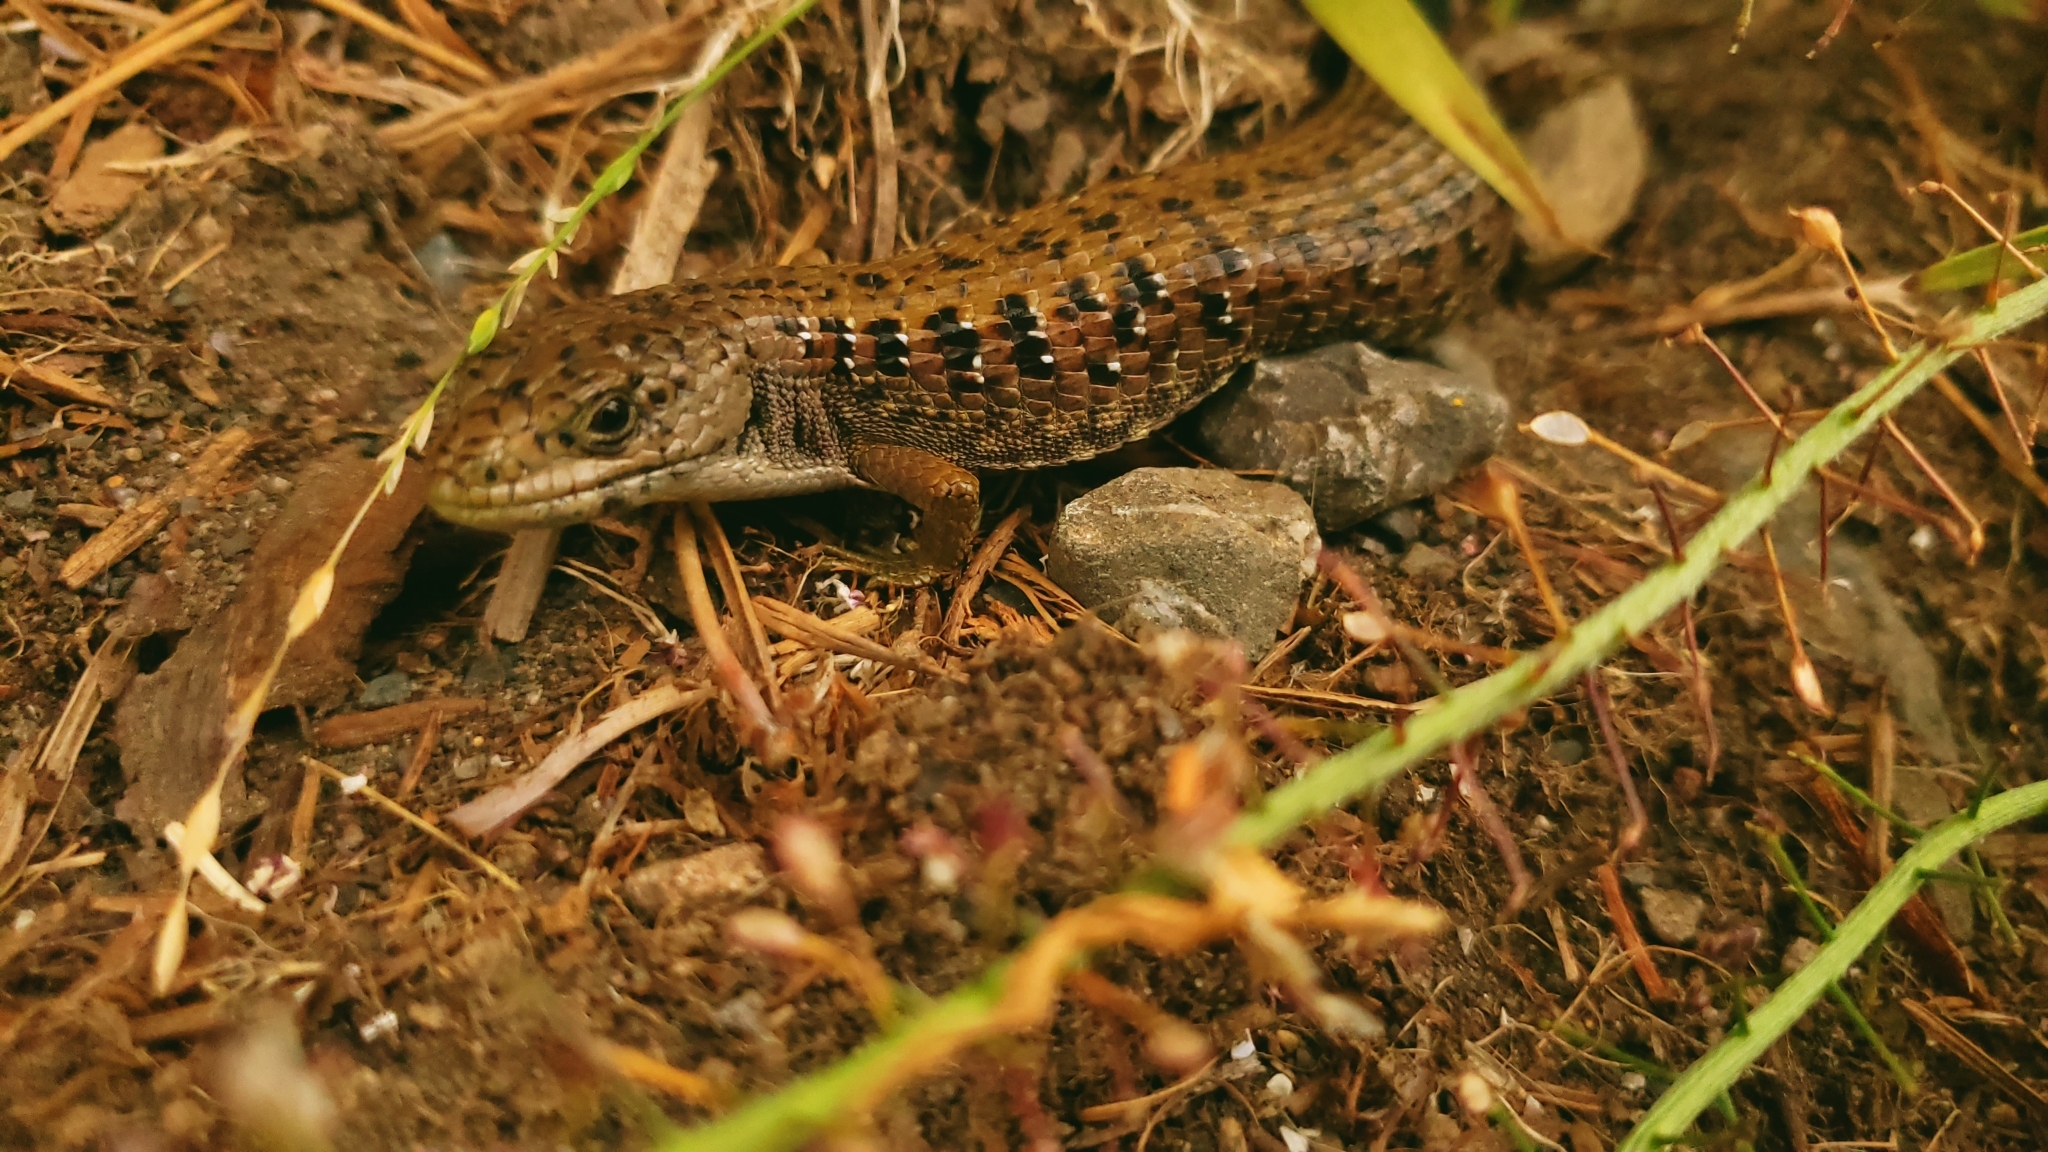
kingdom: Animalia
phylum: Chordata
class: Squamata
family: Anguidae
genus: Elgaria
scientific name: Elgaria coerulea
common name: Northern alligator lizard
